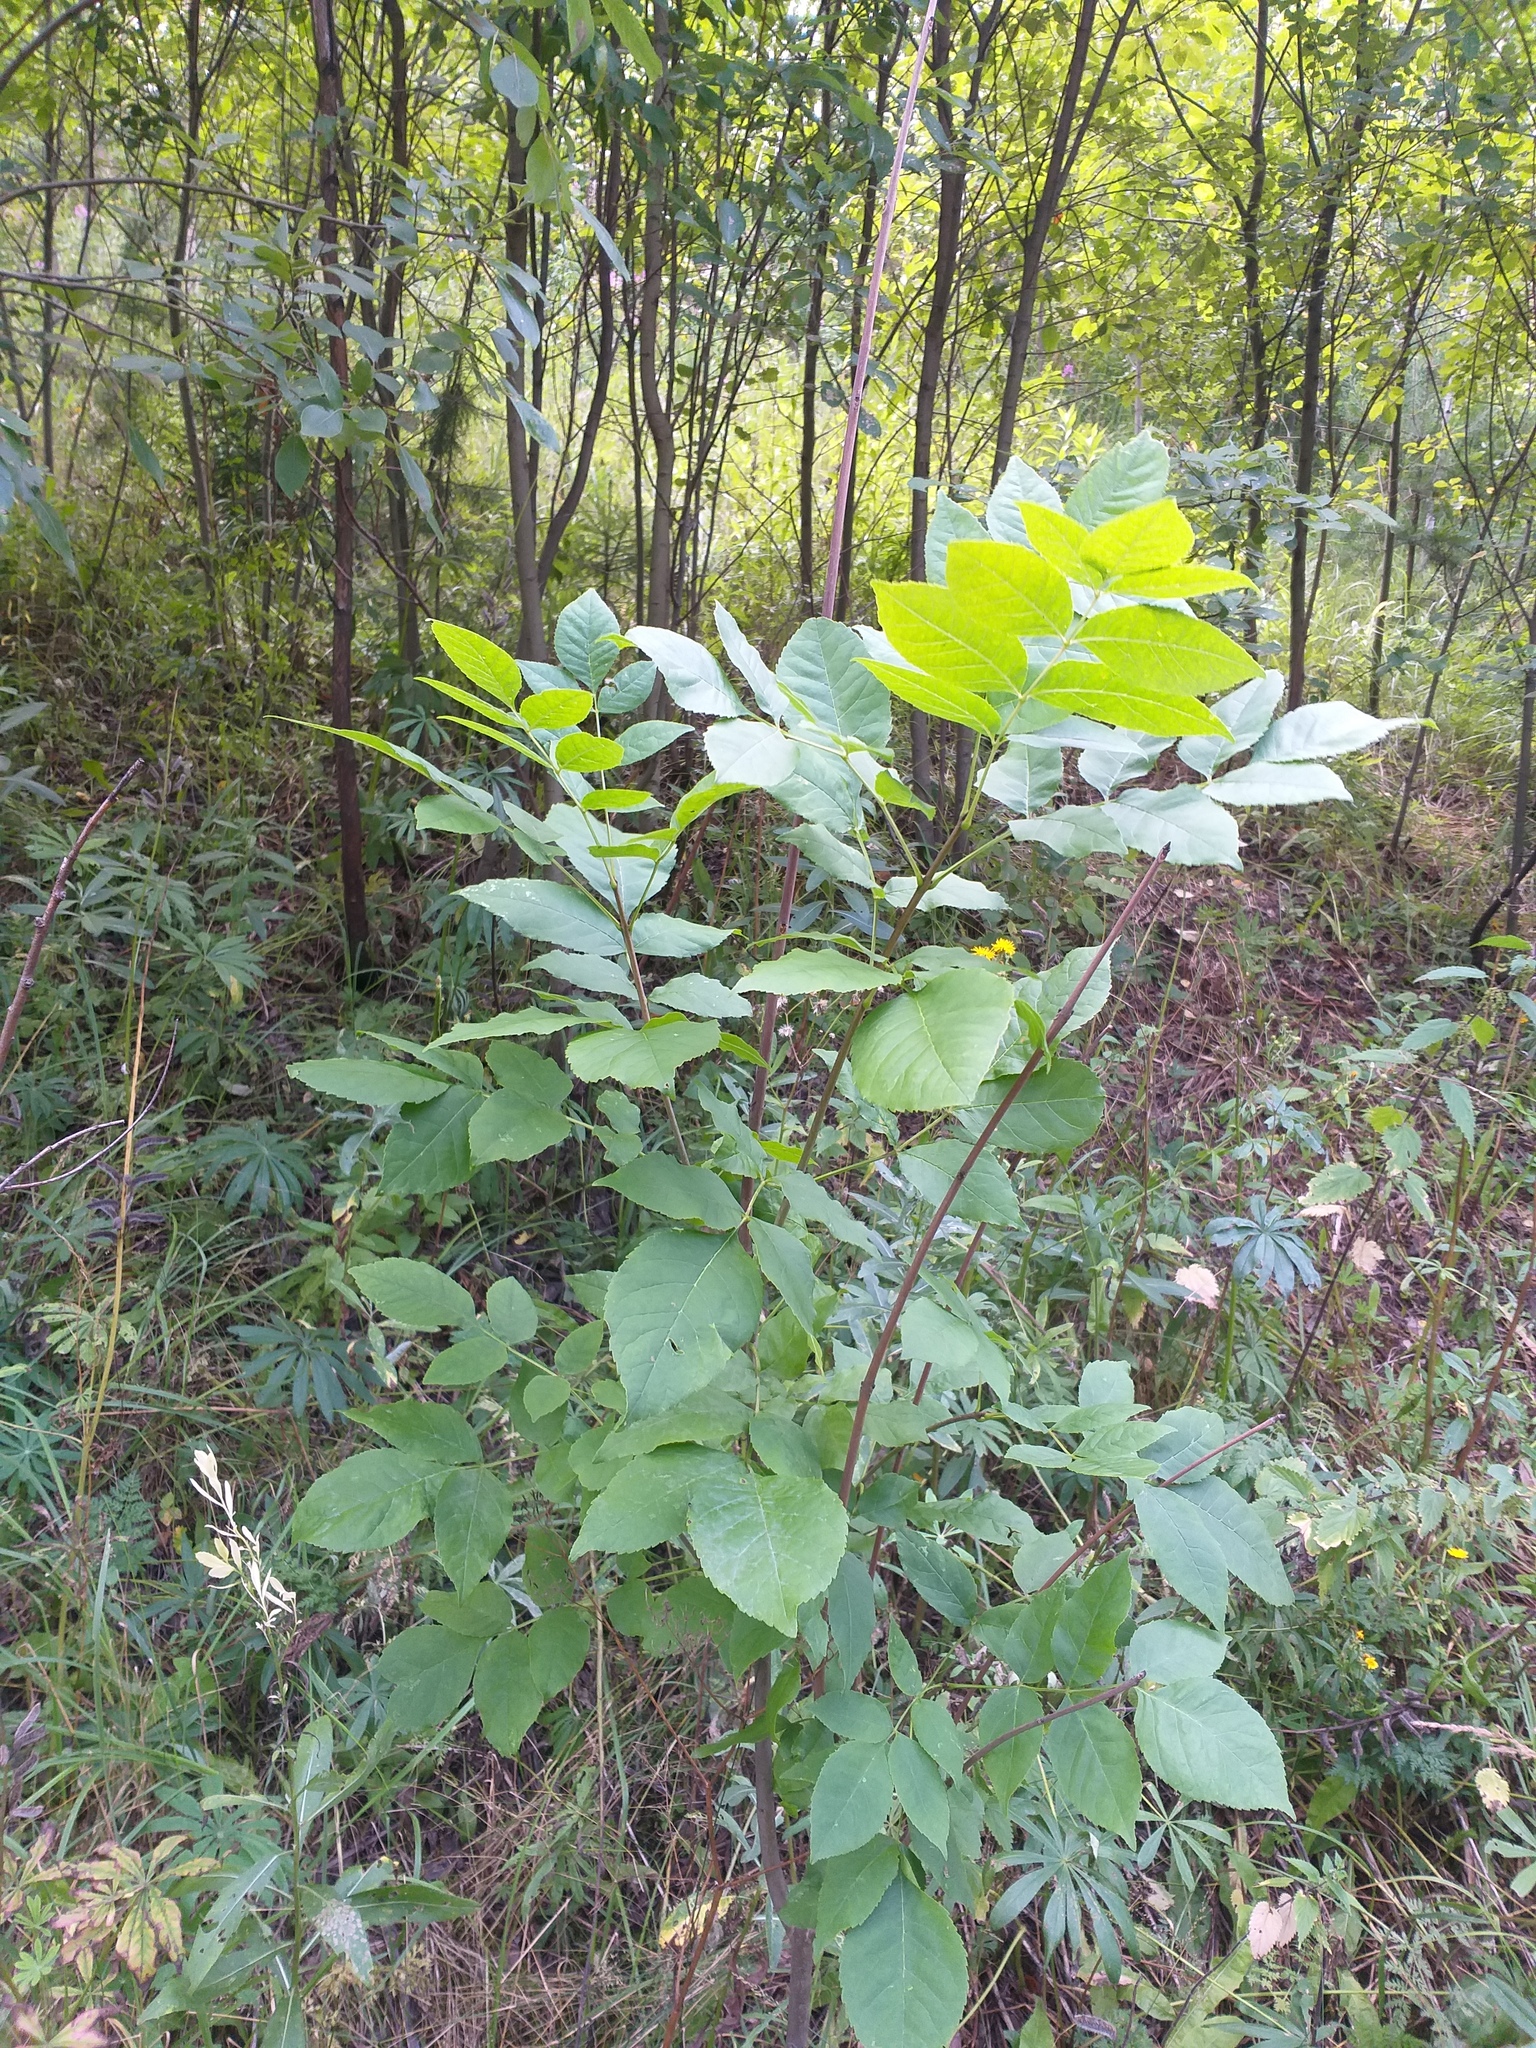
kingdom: Plantae
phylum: Tracheophyta
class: Magnoliopsida
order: Lamiales
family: Oleaceae
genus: Fraxinus
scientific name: Fraxinus pennsylvanica
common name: Green ash
